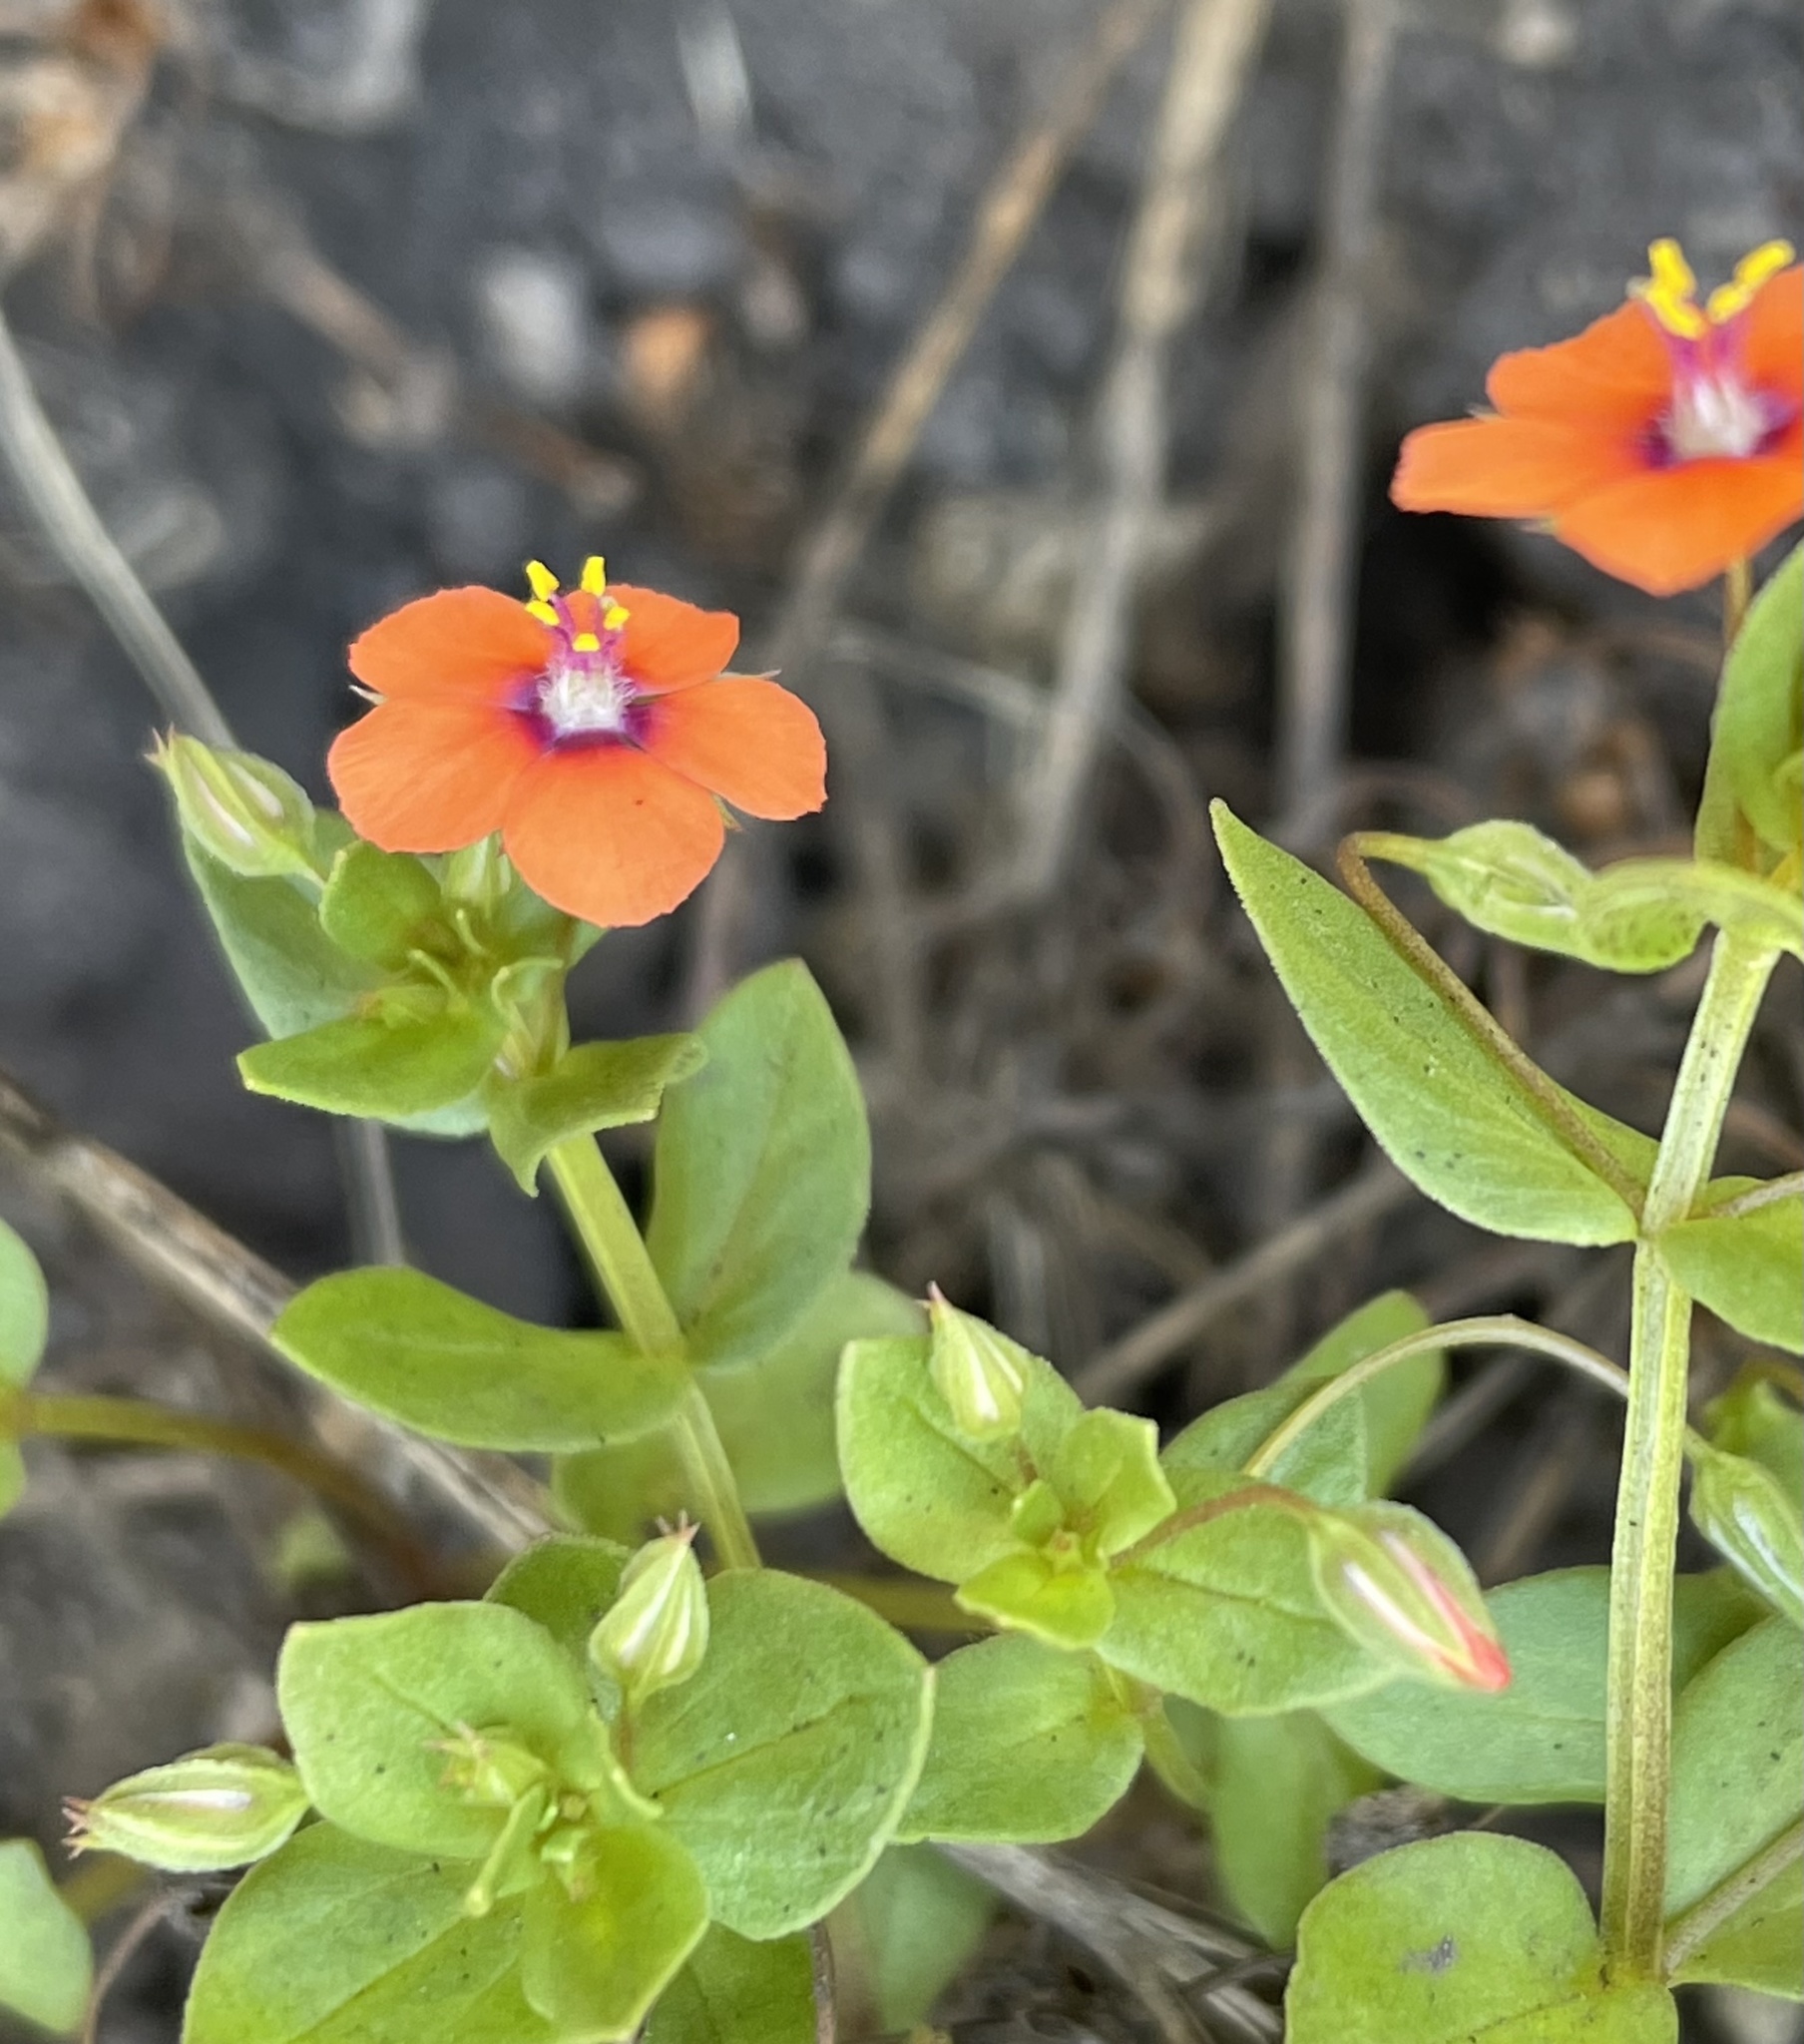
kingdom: Plantae
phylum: Tracheophyta
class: Magnoliopsida
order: Ericales
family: Primulaceae
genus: Lysimachia
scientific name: Lysimachia arvensis
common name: Scarlet pimpernel
